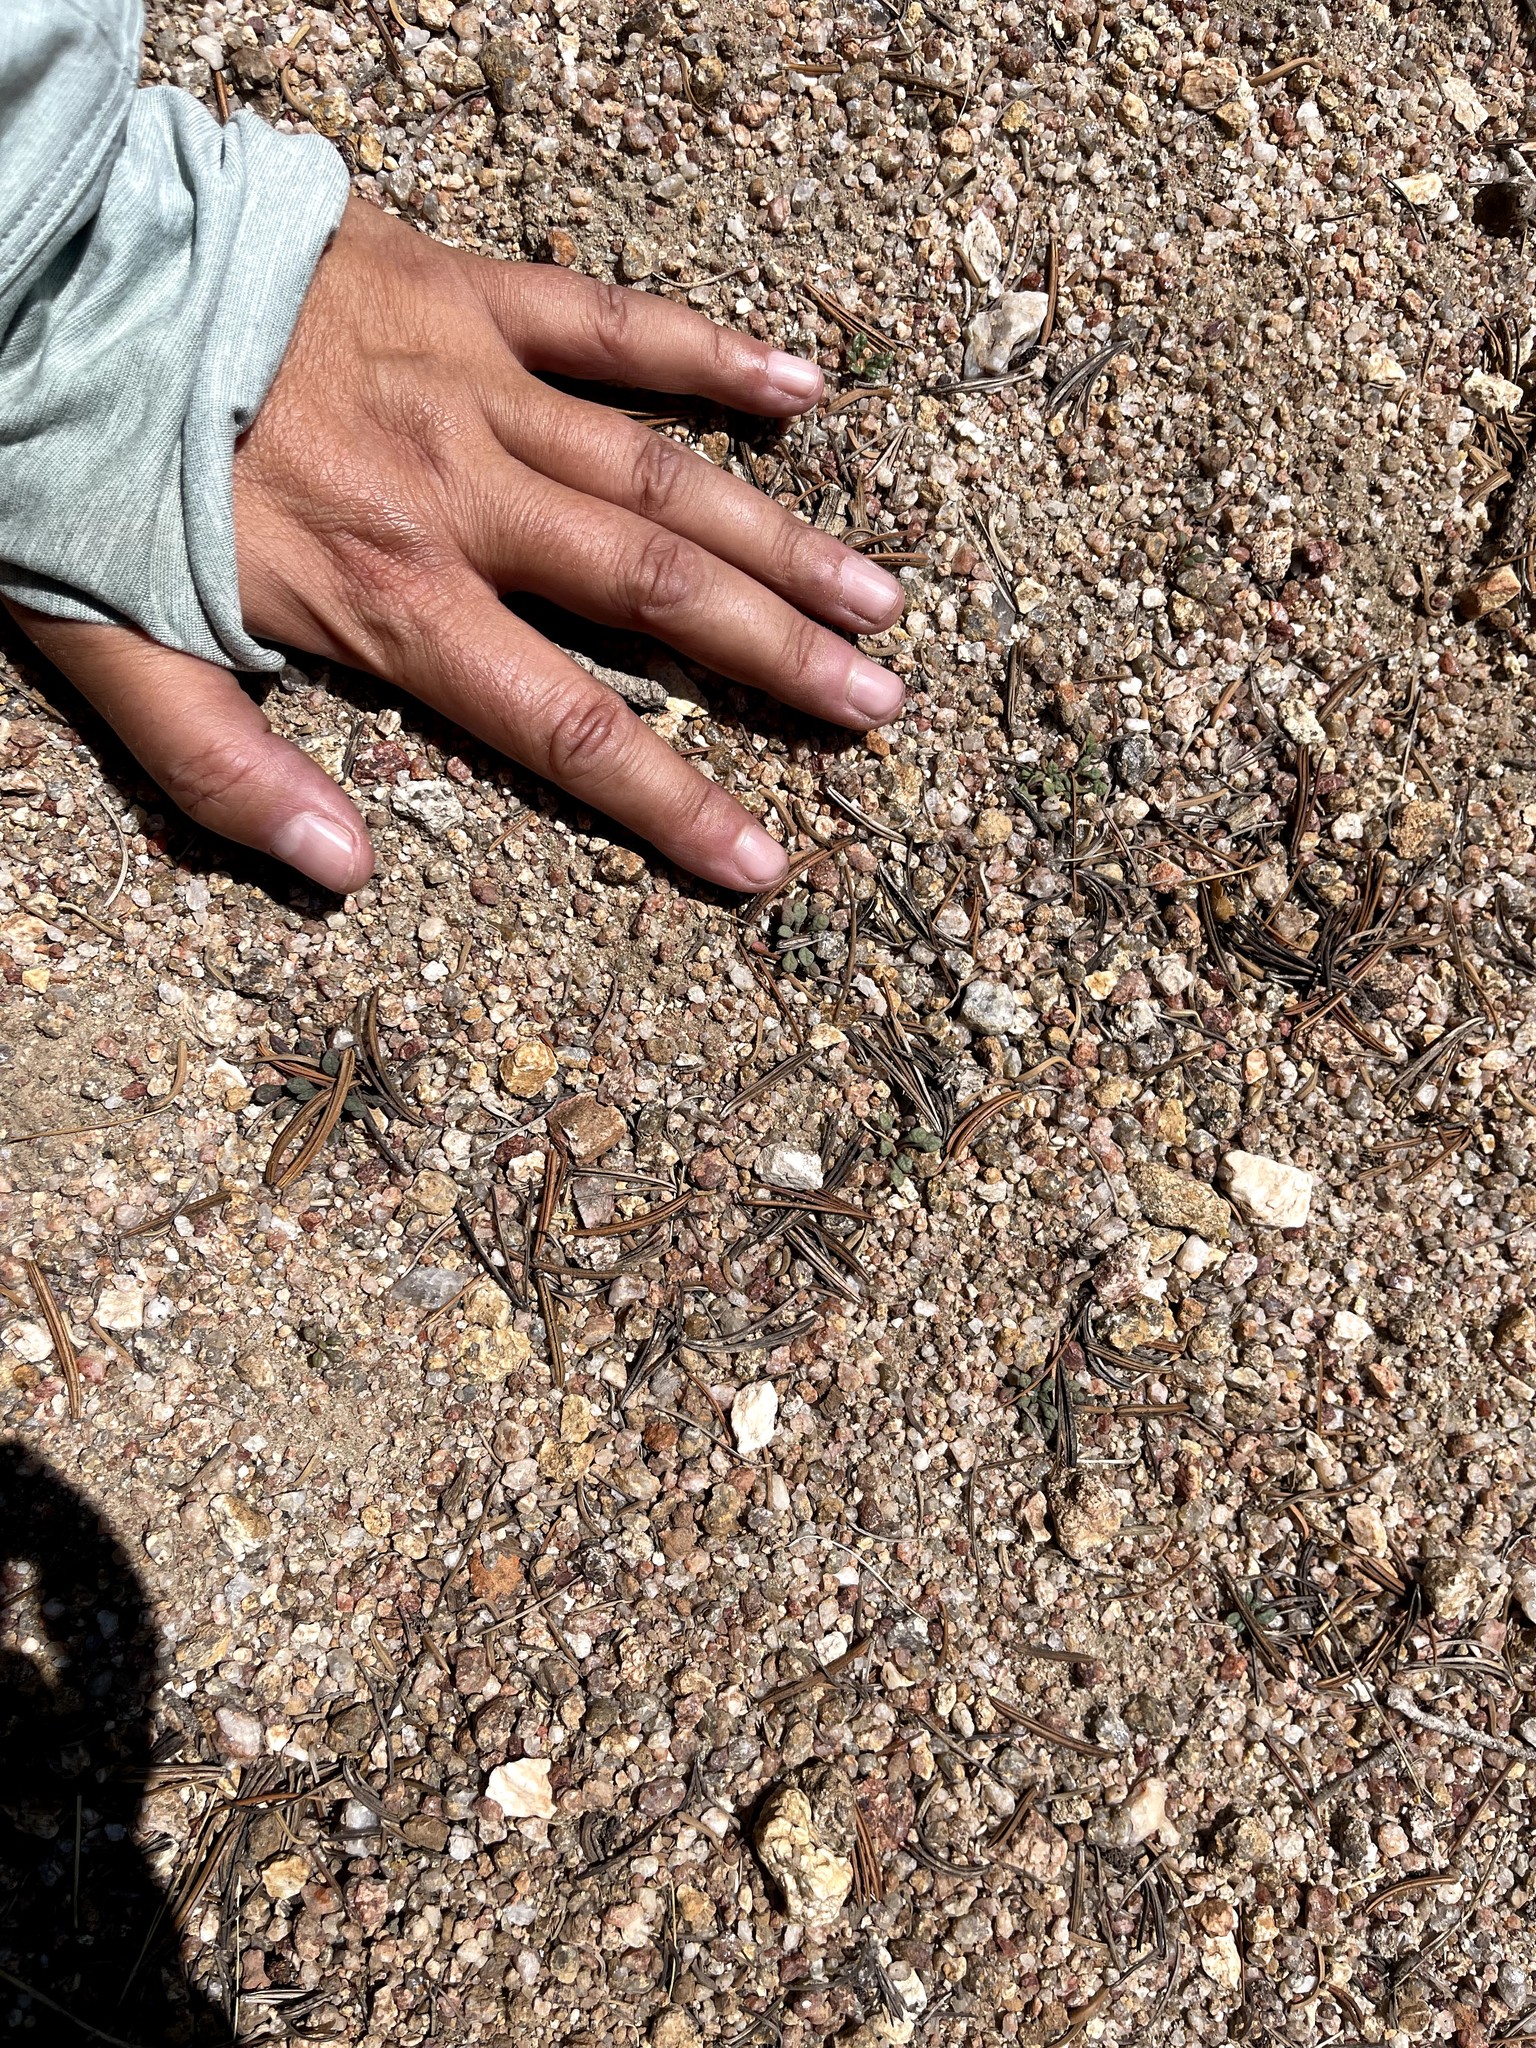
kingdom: Plantae
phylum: Tracheophyta
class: Magnoliopsida
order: Caryophyllales
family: Montiaceae
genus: Calyptridium
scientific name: Calyptridium monospermum
